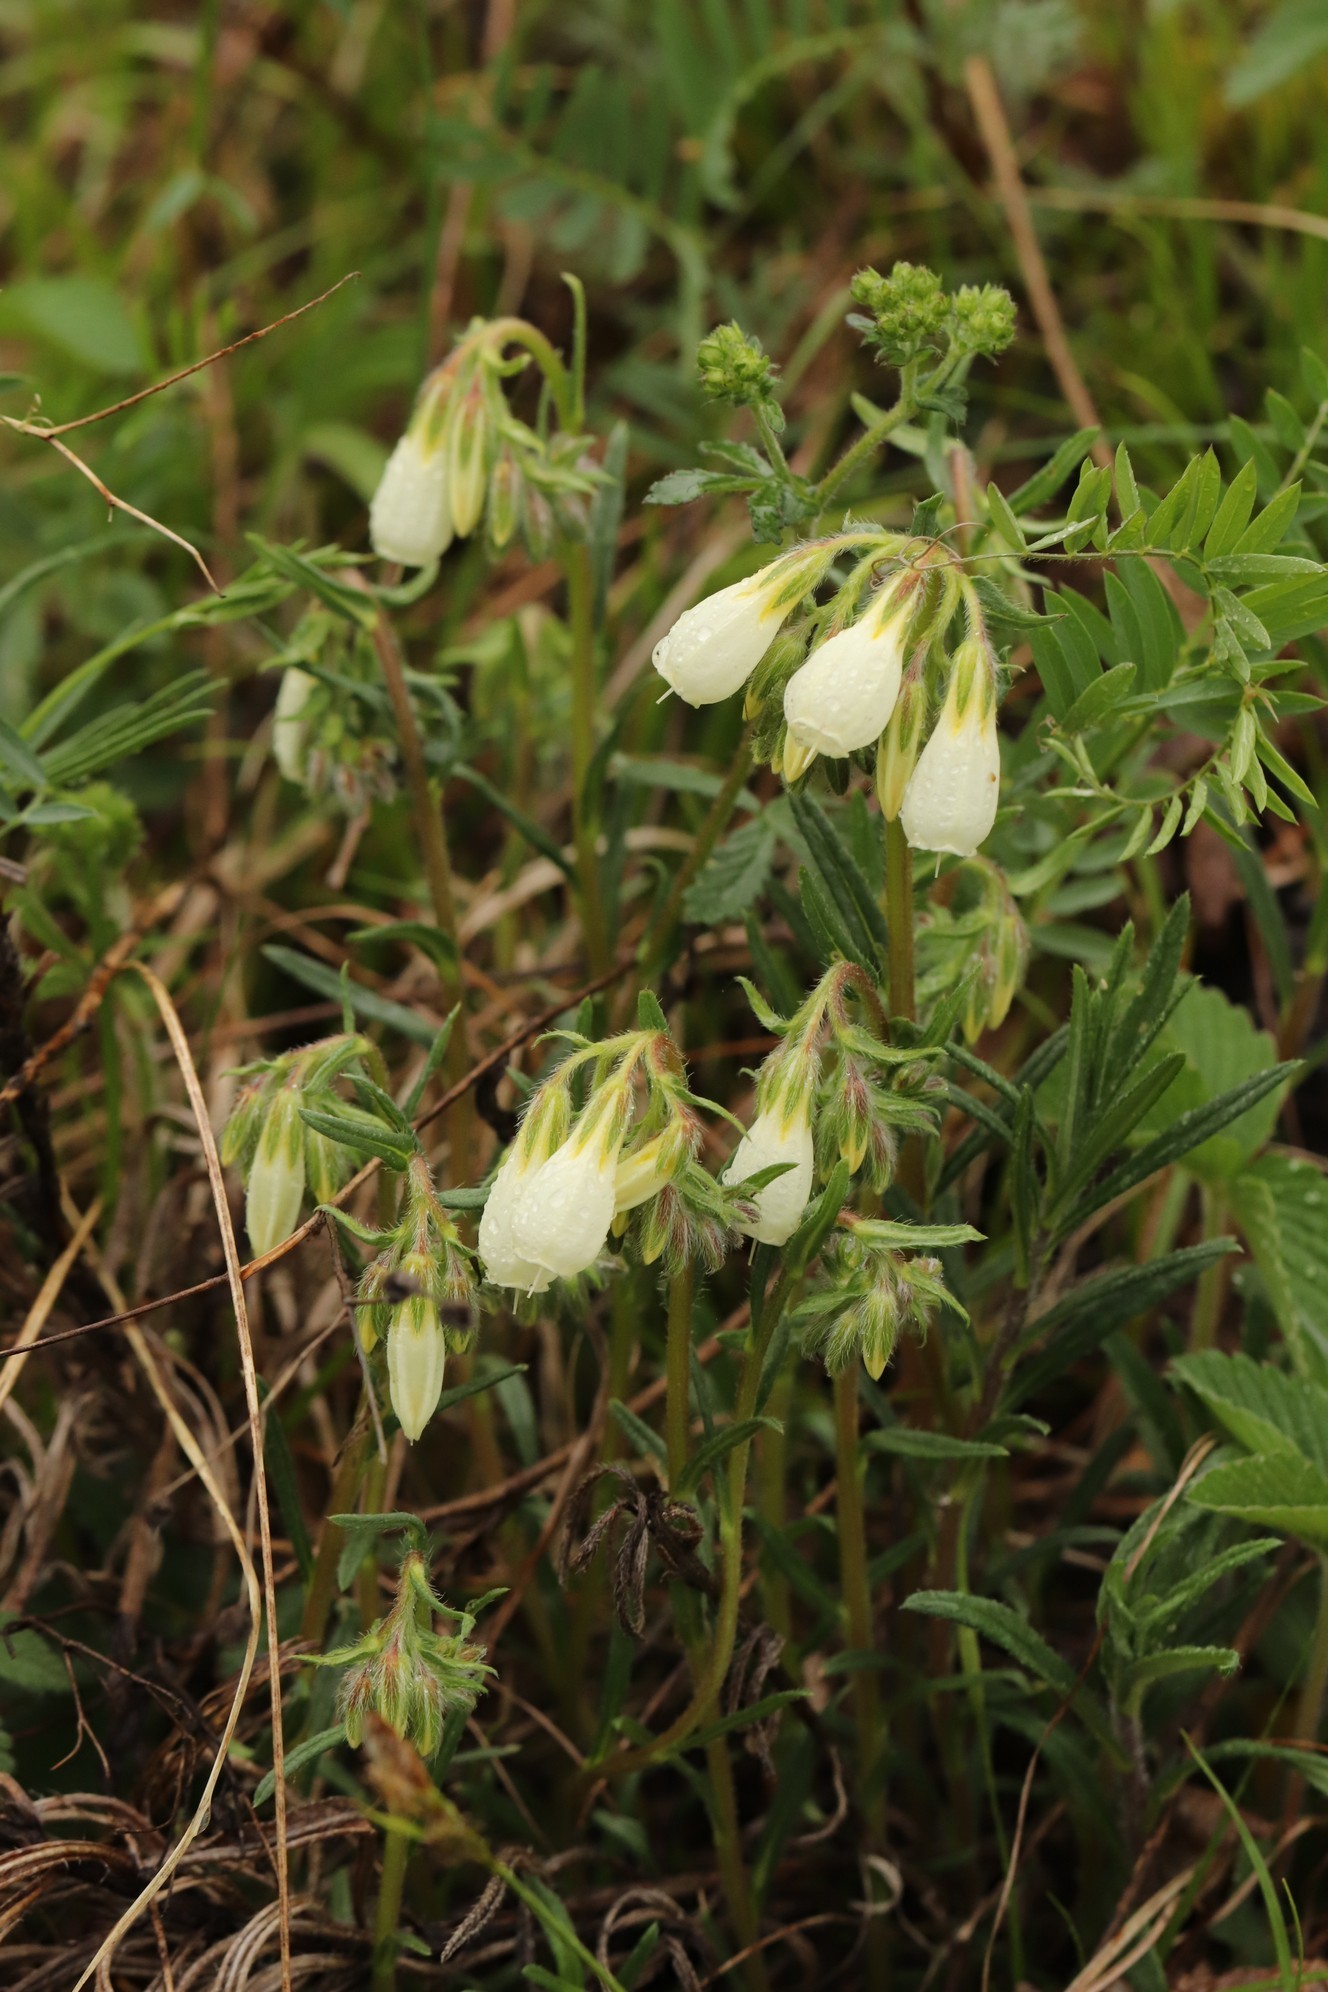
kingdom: Plantae
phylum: Tracheophyta
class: Magnoliopsida
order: Boraginales
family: Boraginaceae
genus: Onosma
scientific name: Onosma simplicissima
